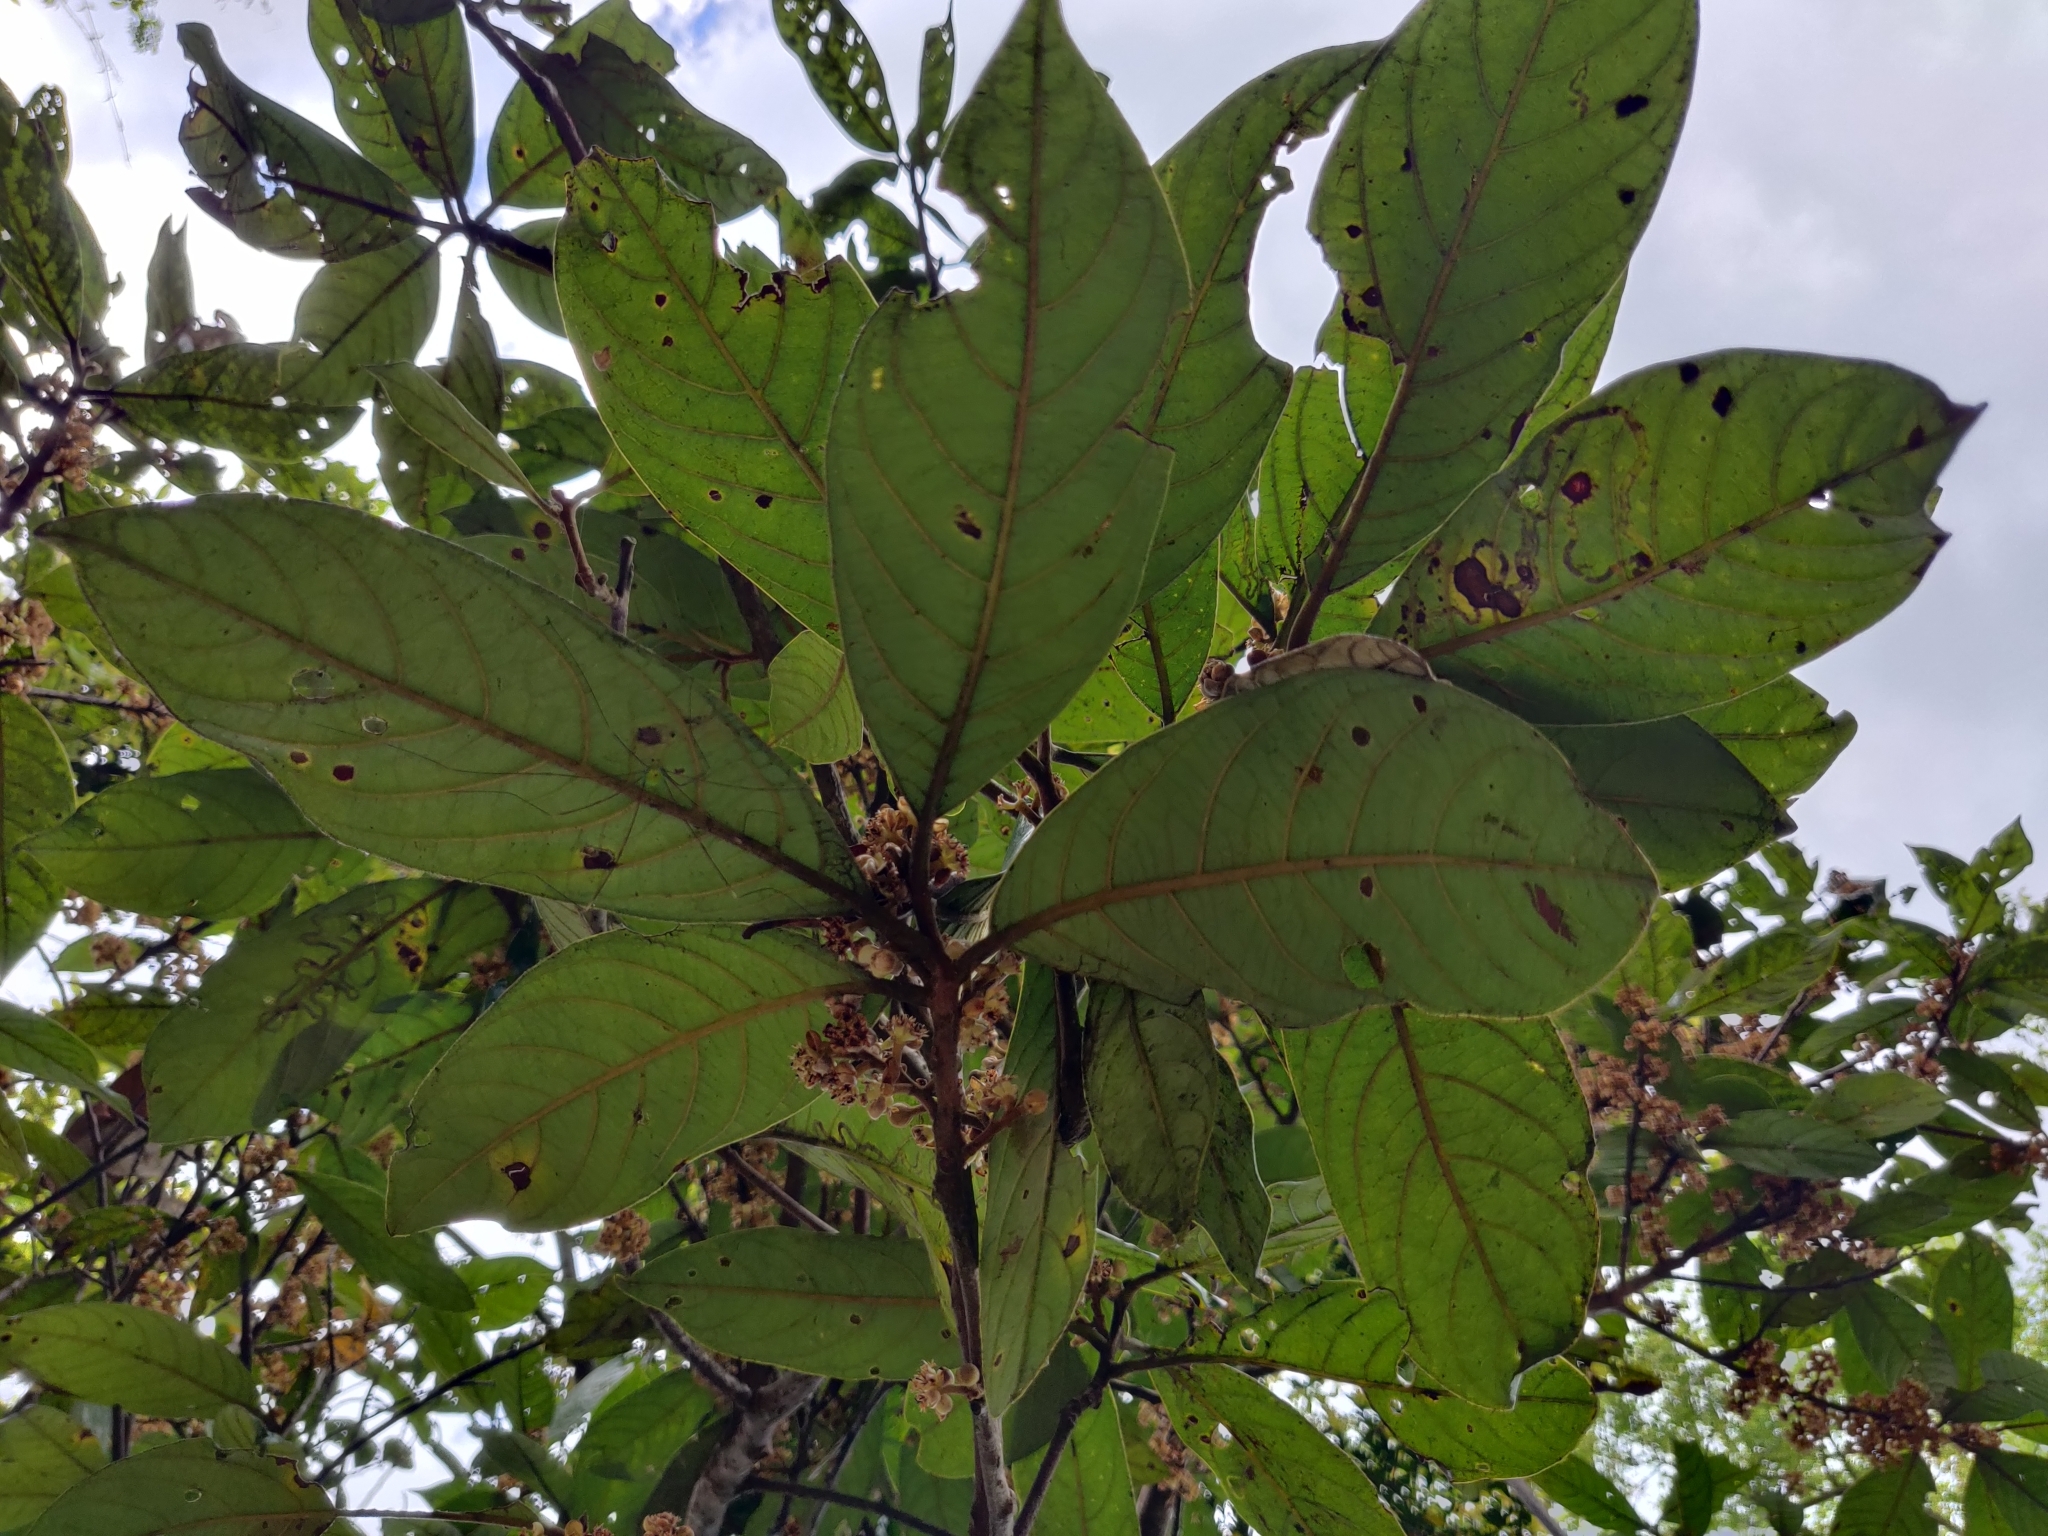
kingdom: Plantae
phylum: Tracheophyta
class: Magnoliopsida
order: Laurales
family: Lauraceae
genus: Litsea
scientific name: Litsea floribunda
